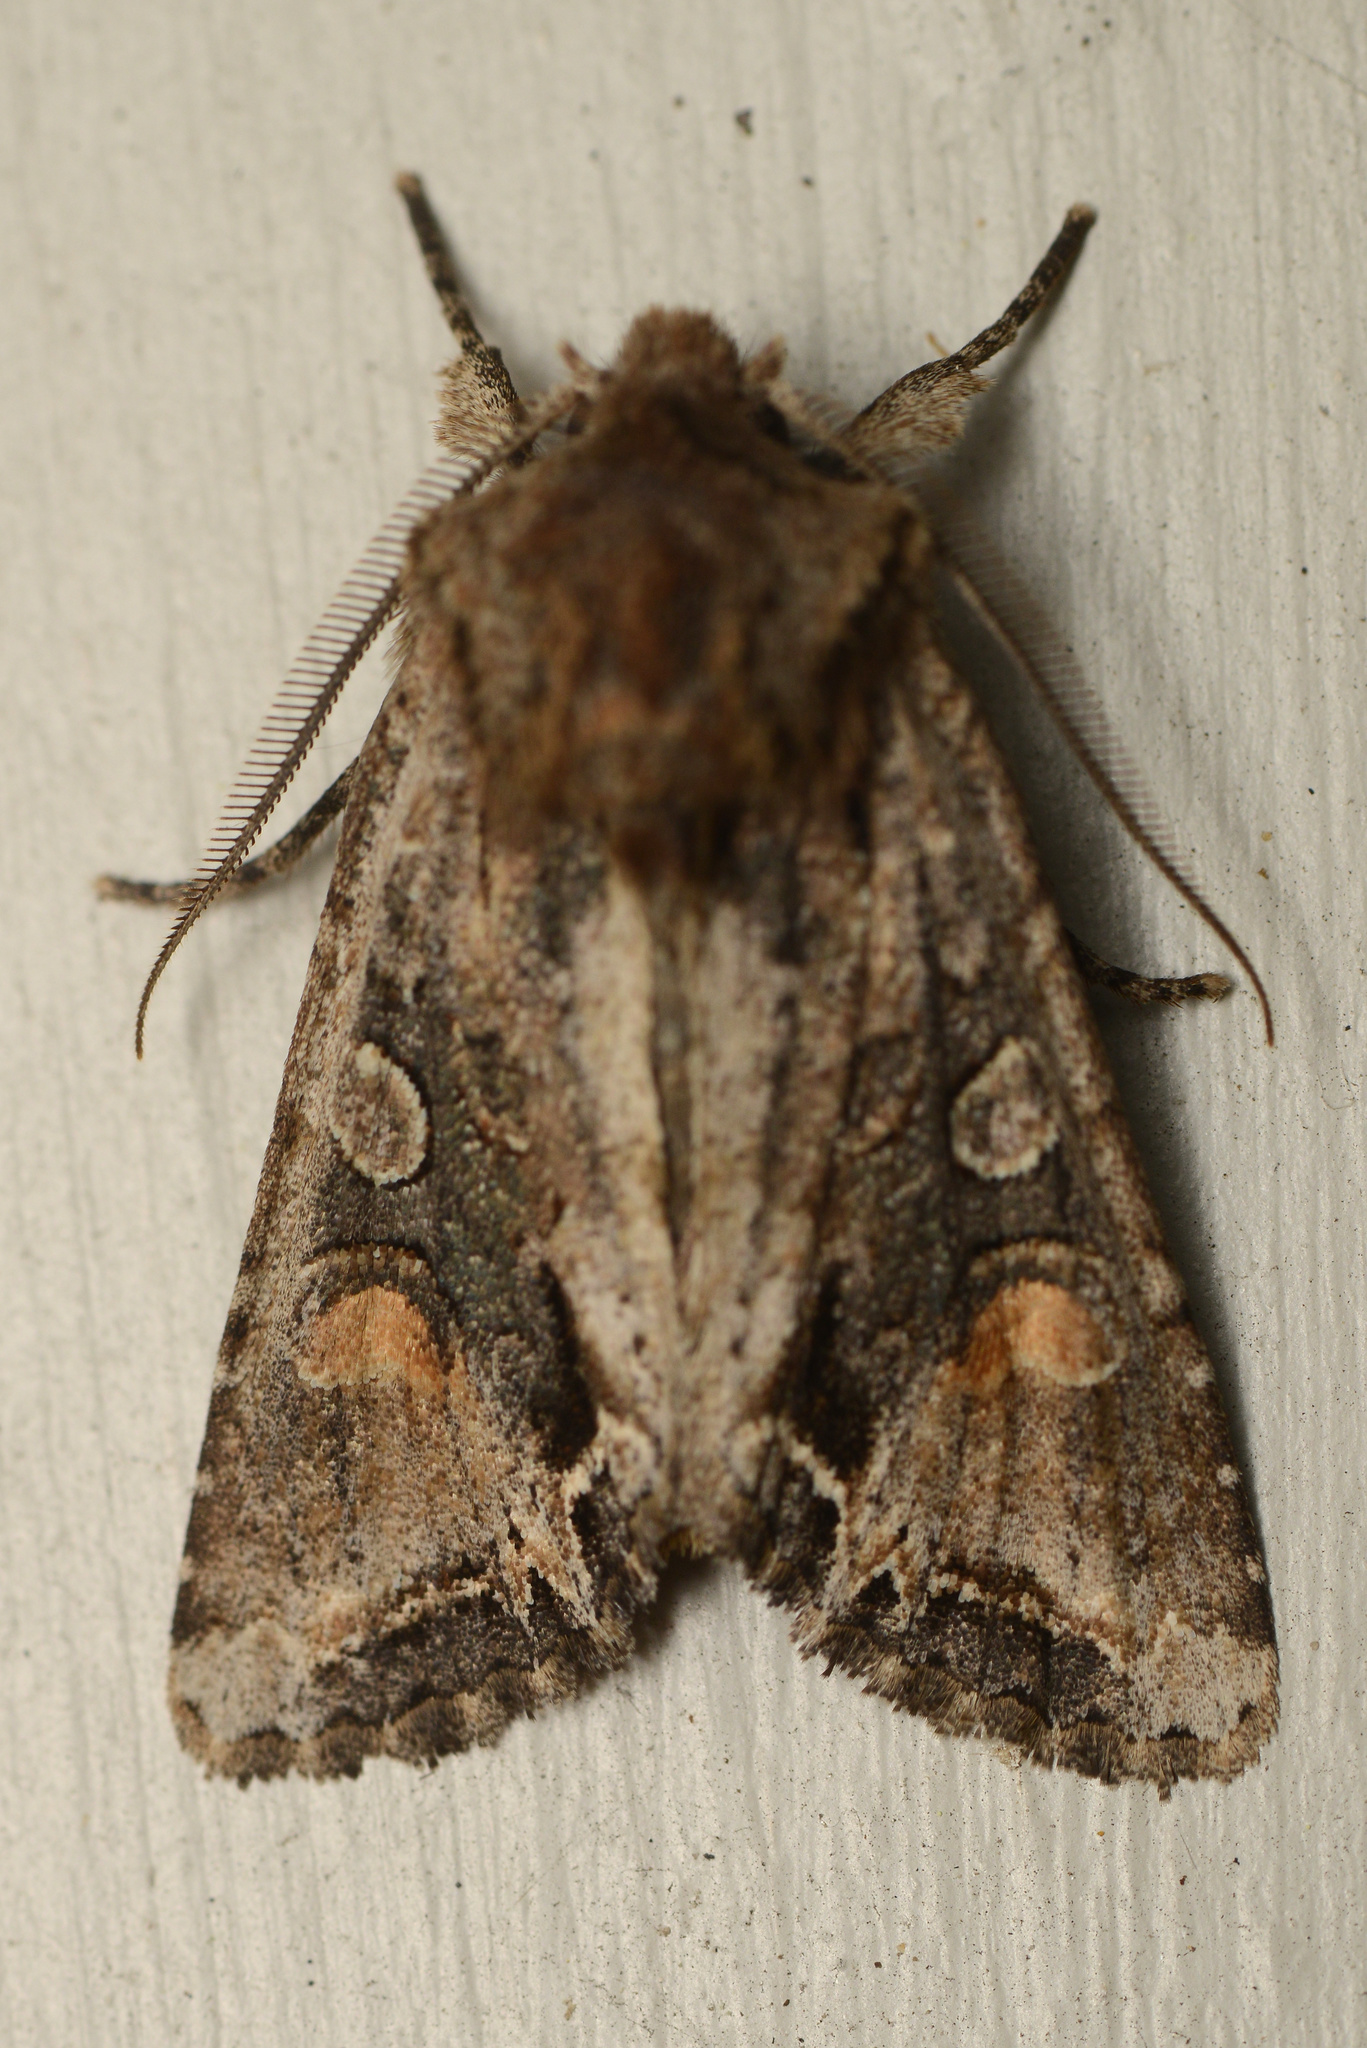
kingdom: Animalia
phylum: Arthropoda
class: Insecta
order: Lepidoptera
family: Noctuidae
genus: Ichneutica
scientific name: Ichneutica
